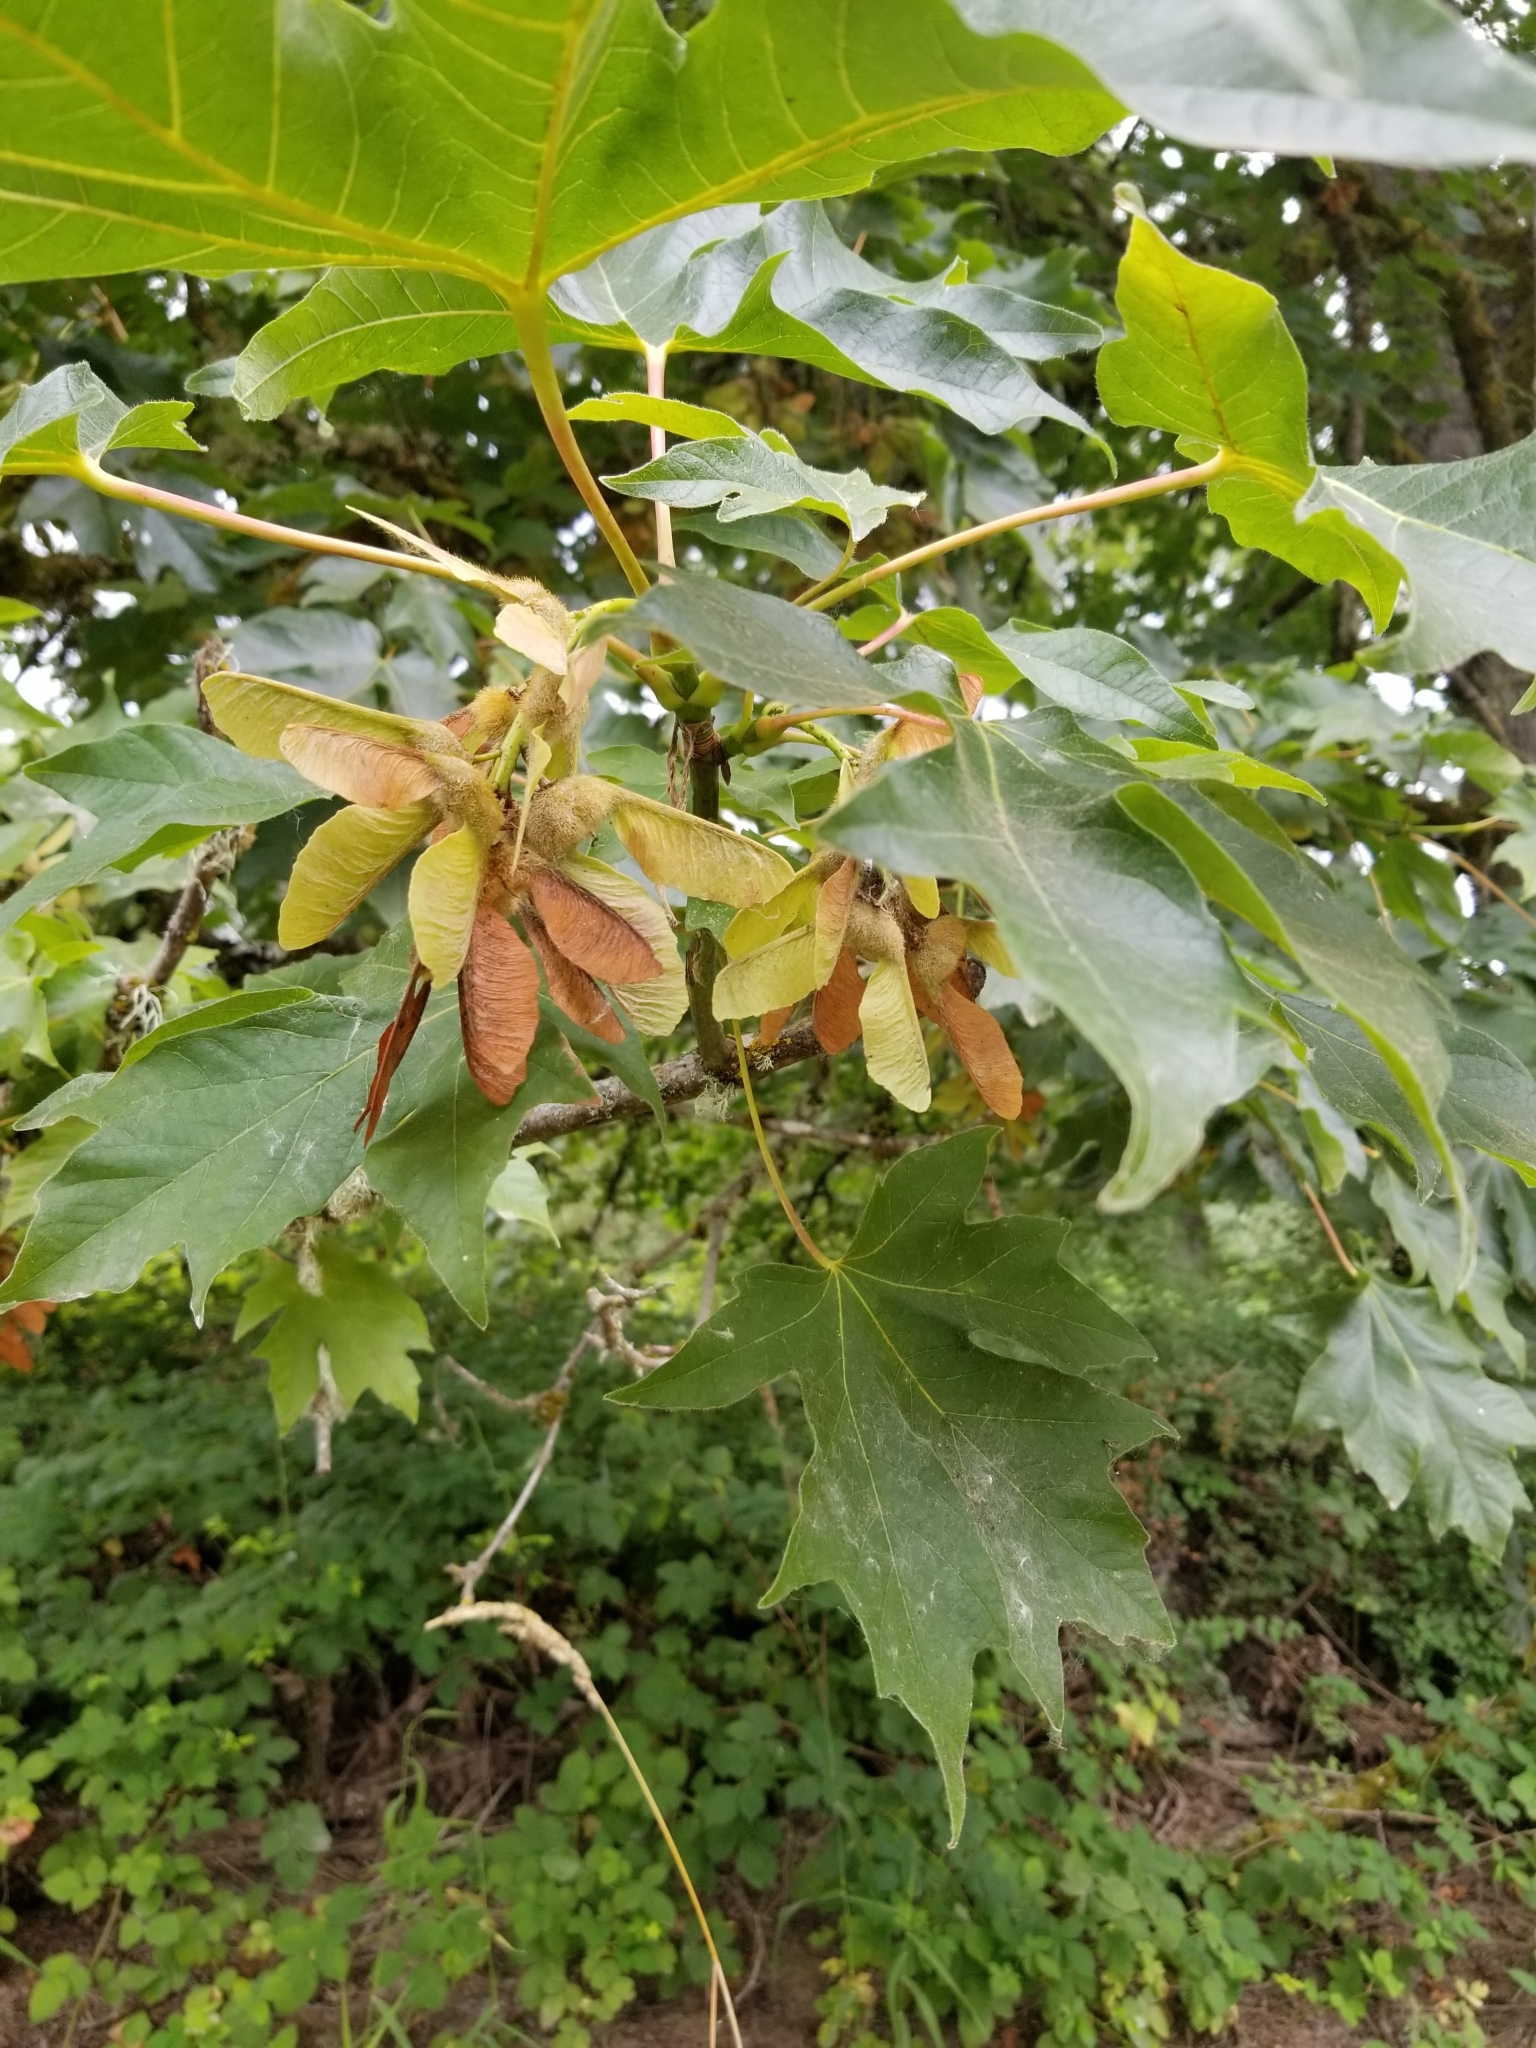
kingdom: Plantae
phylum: Tracheophyta
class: Magnoliopsida
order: Sapindales
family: Sapindaceae
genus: Acer
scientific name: Acer macrophyllum
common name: Oregon maple
